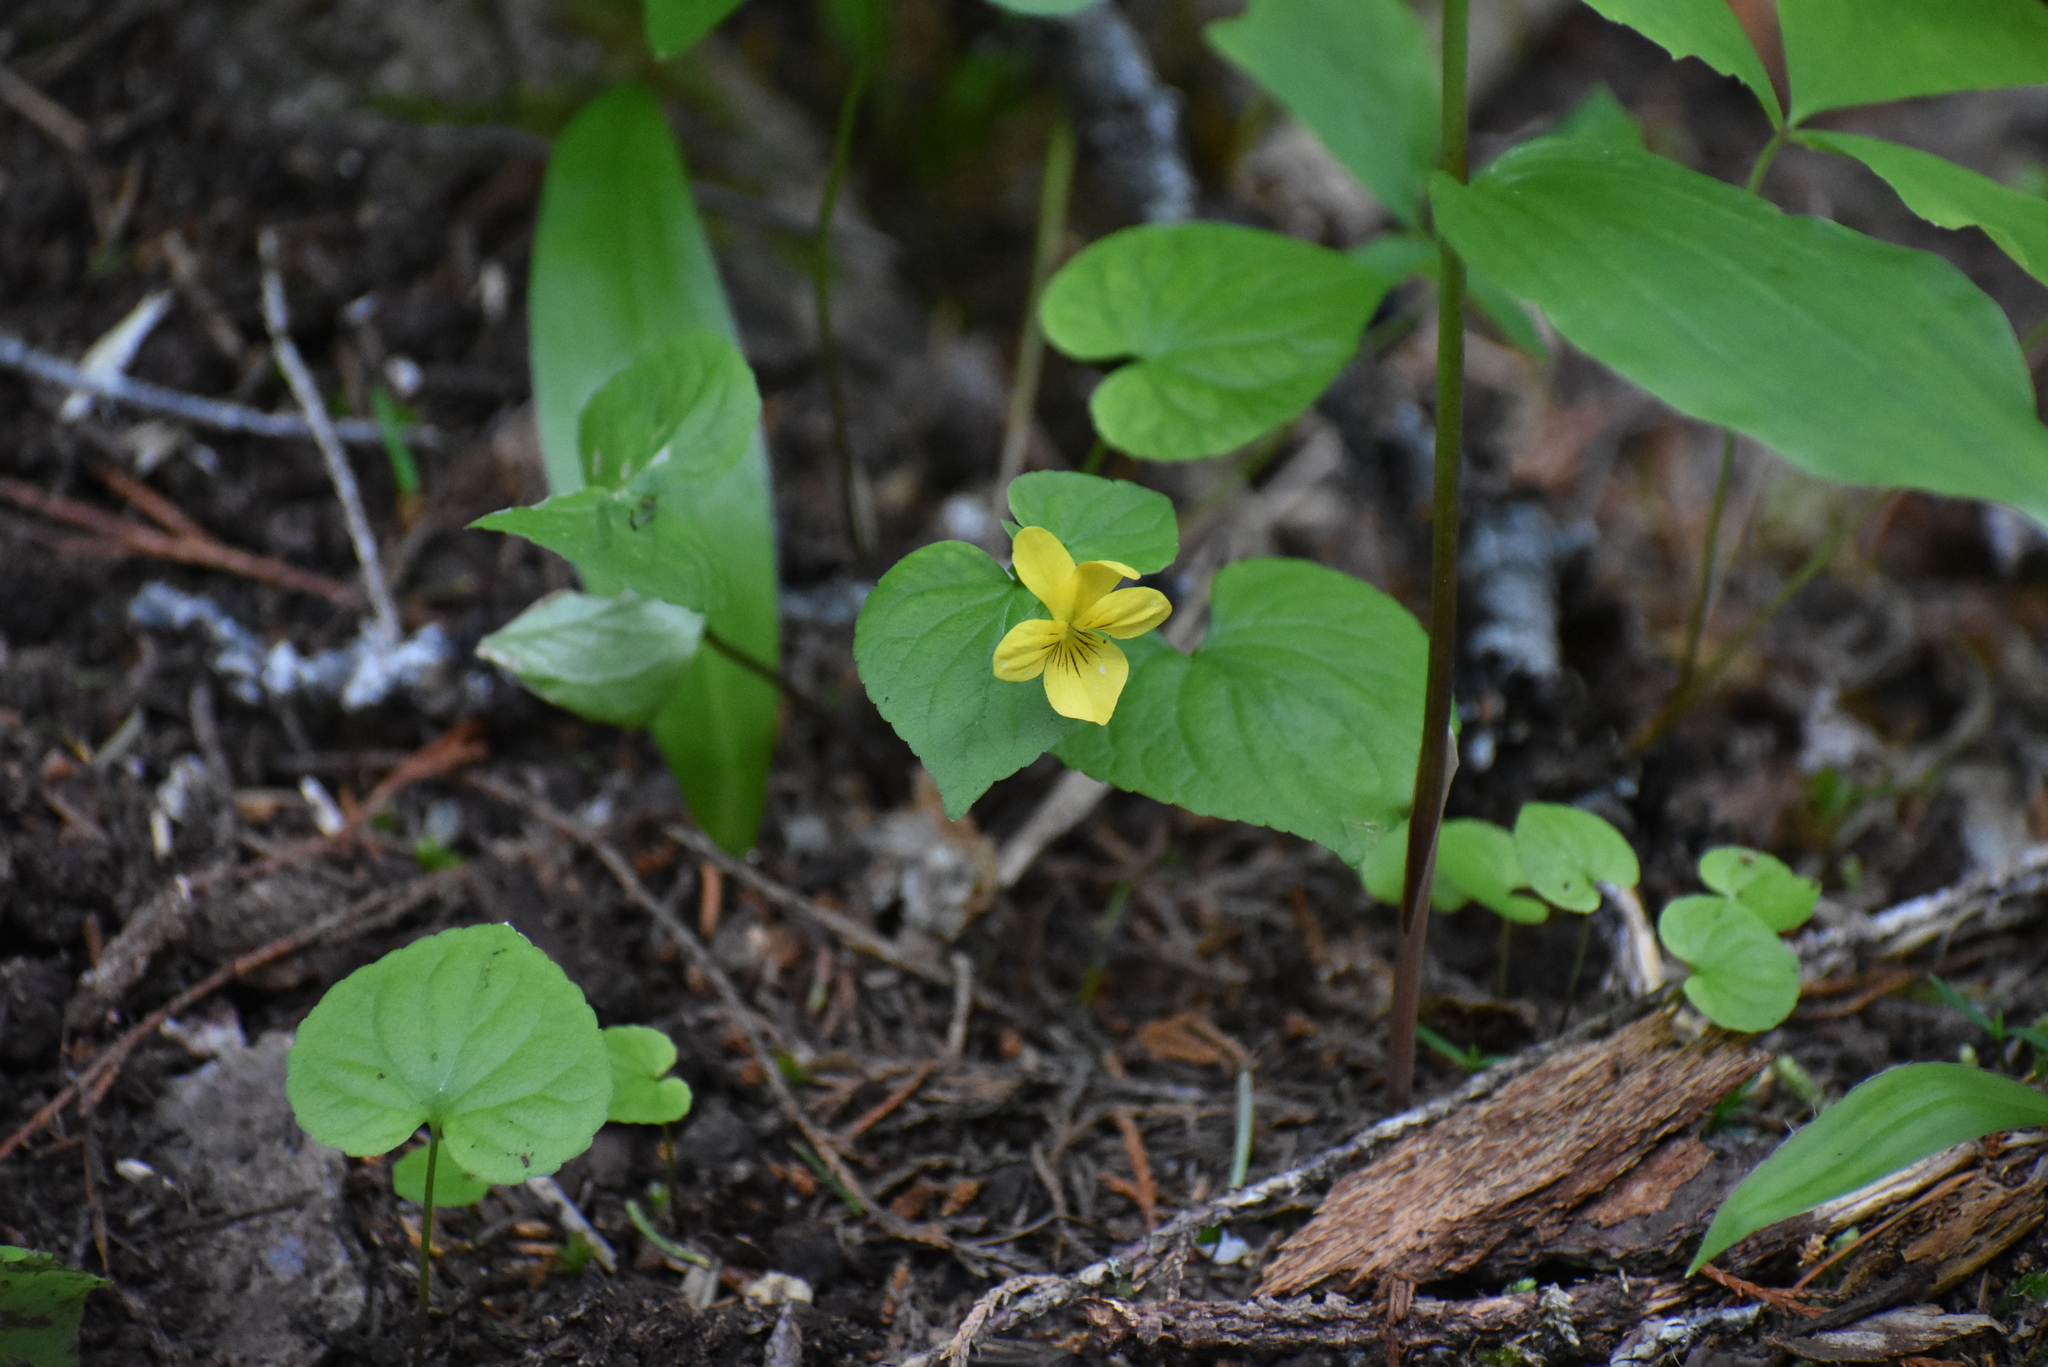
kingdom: Plantae
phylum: Tracheophyta
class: Magnoliopsida
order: Malpighiales
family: Violaceae
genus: Viola
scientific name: Viola glabella
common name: Stream violet
